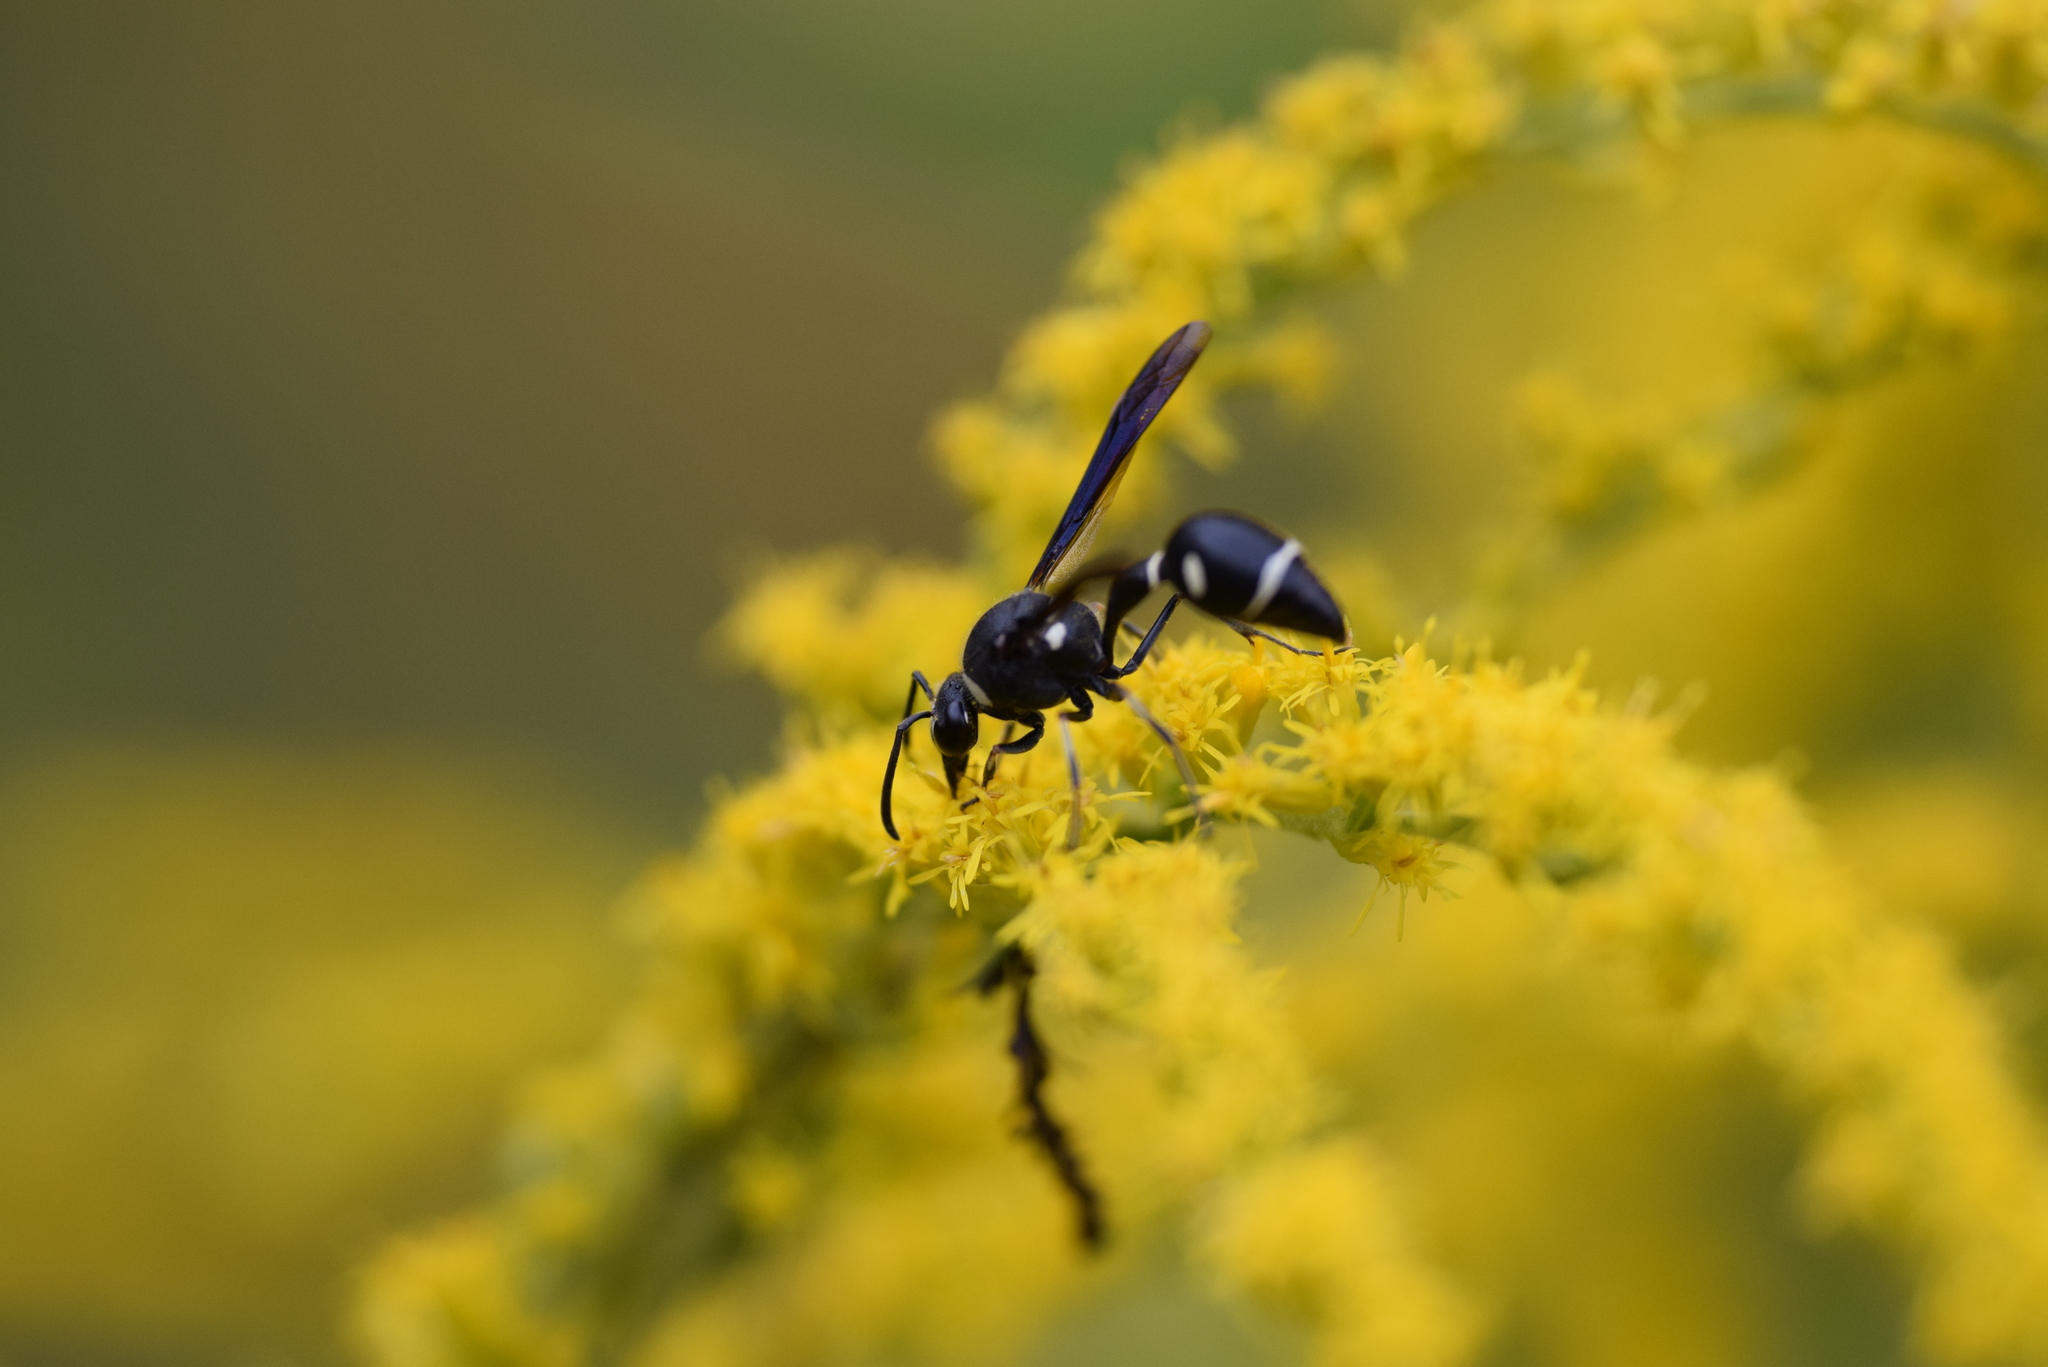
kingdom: Animalia
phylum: Arthropoda
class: Insecta
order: Hymenoptera
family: Vespidae
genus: Eumenes
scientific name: Eumenes fraternus
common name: Fraternal potter wasp
